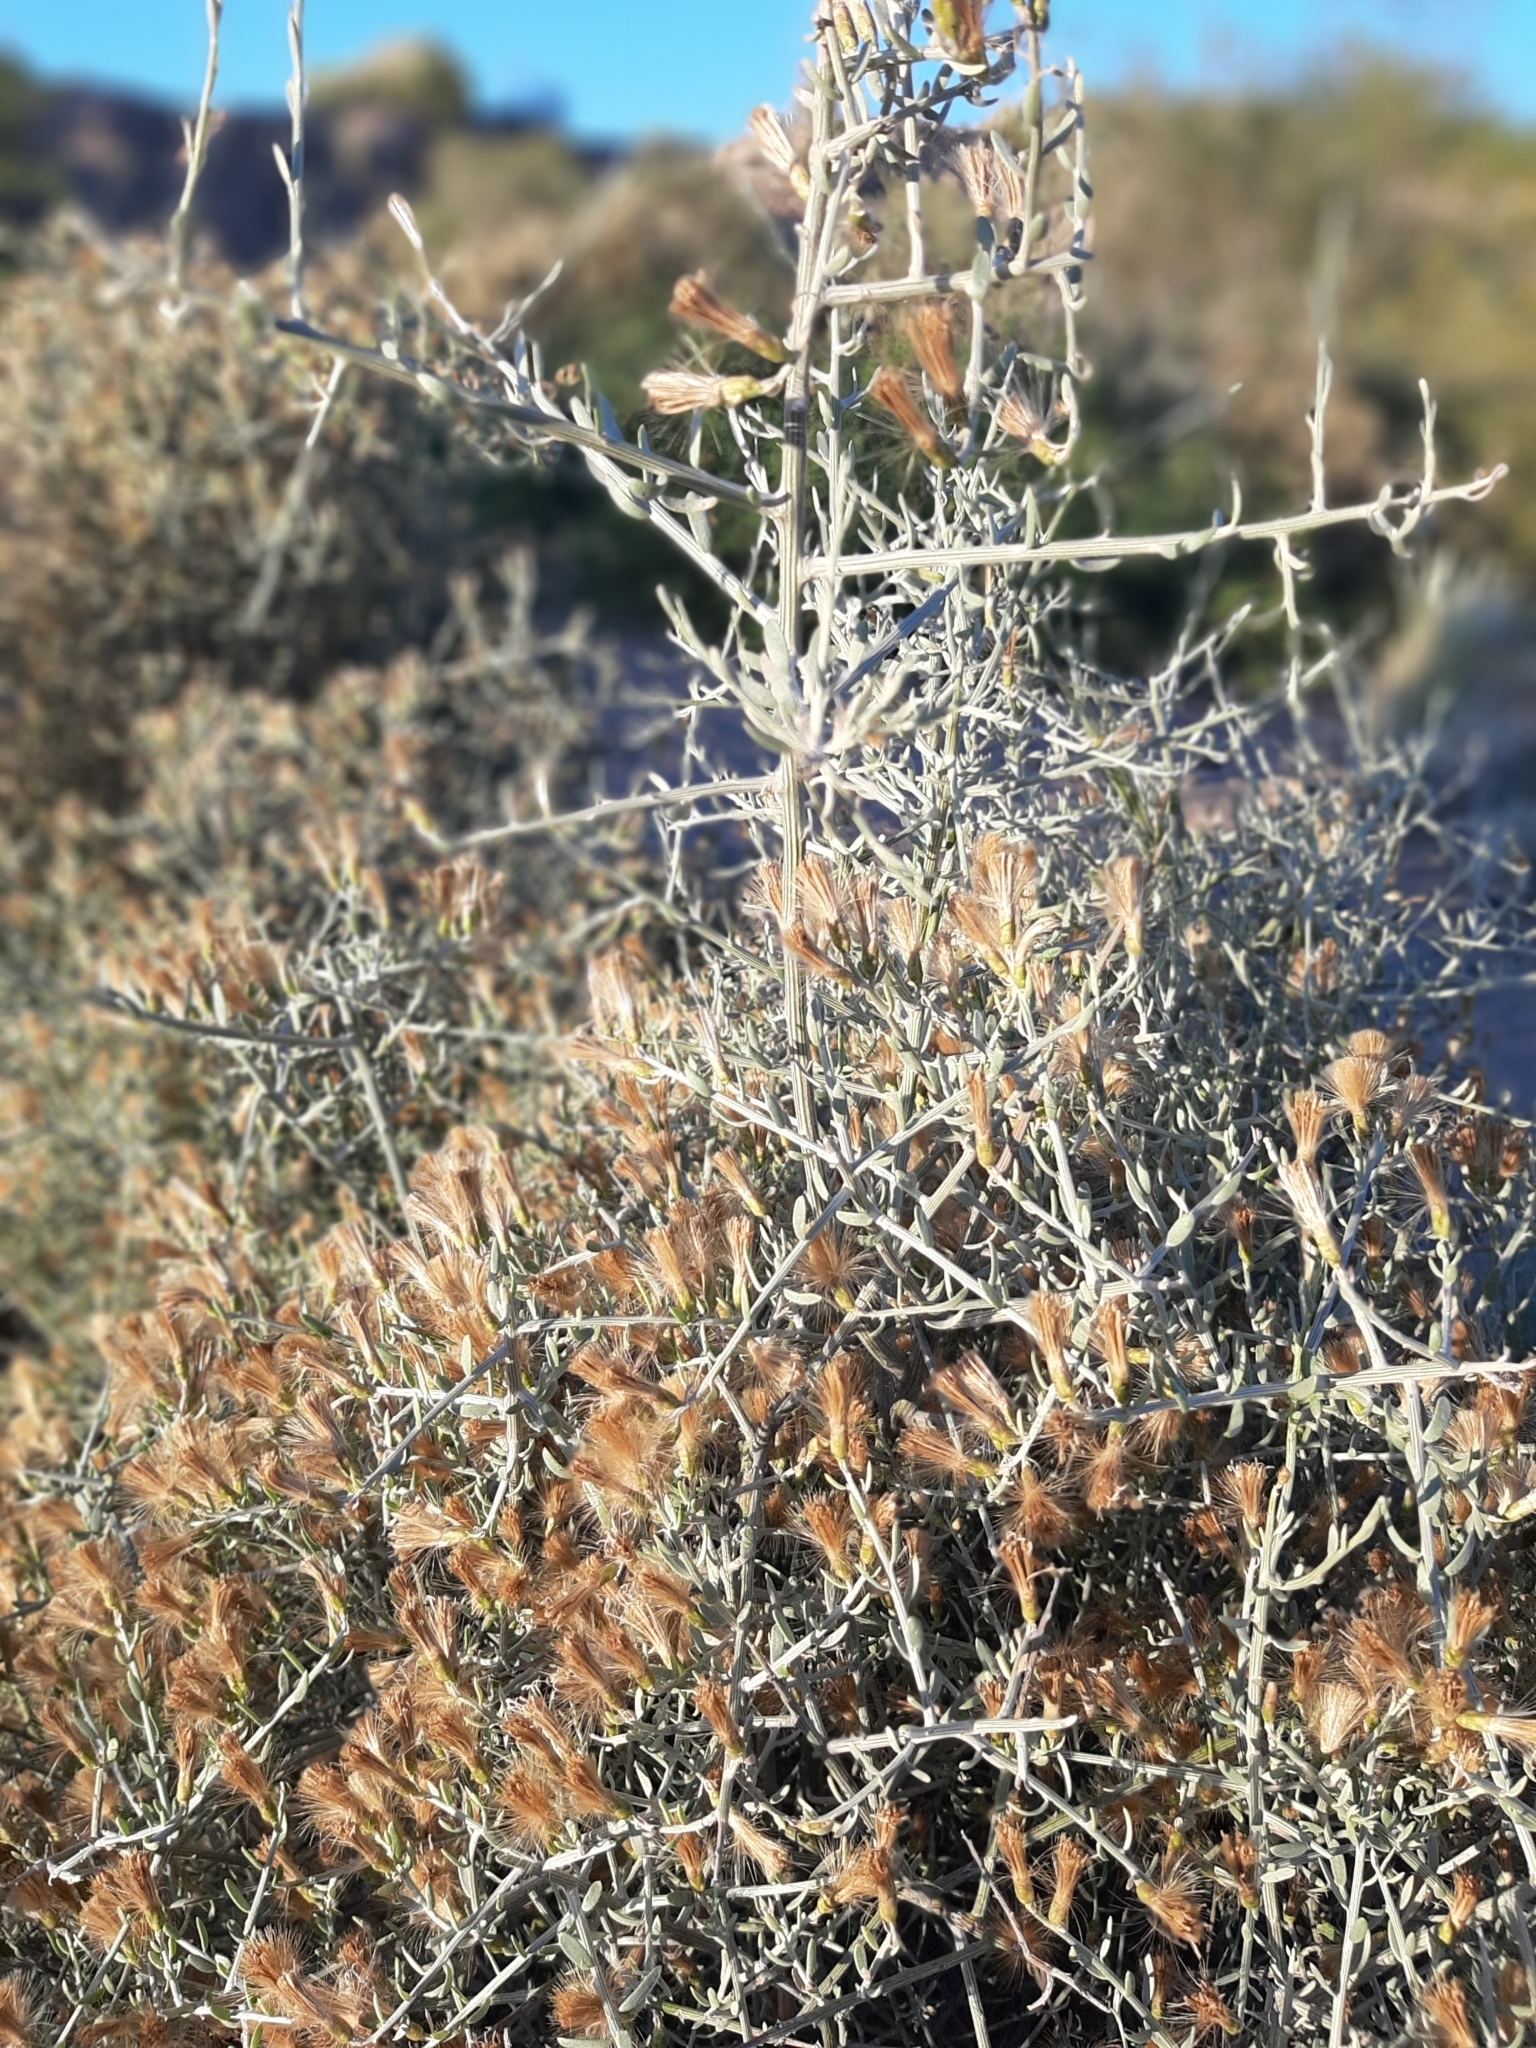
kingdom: Plantae
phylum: Tracheophyta
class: Magnoliopsida
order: Asterales
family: Asteraceae
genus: Cyclolepis
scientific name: Cyclolepis genistoides
